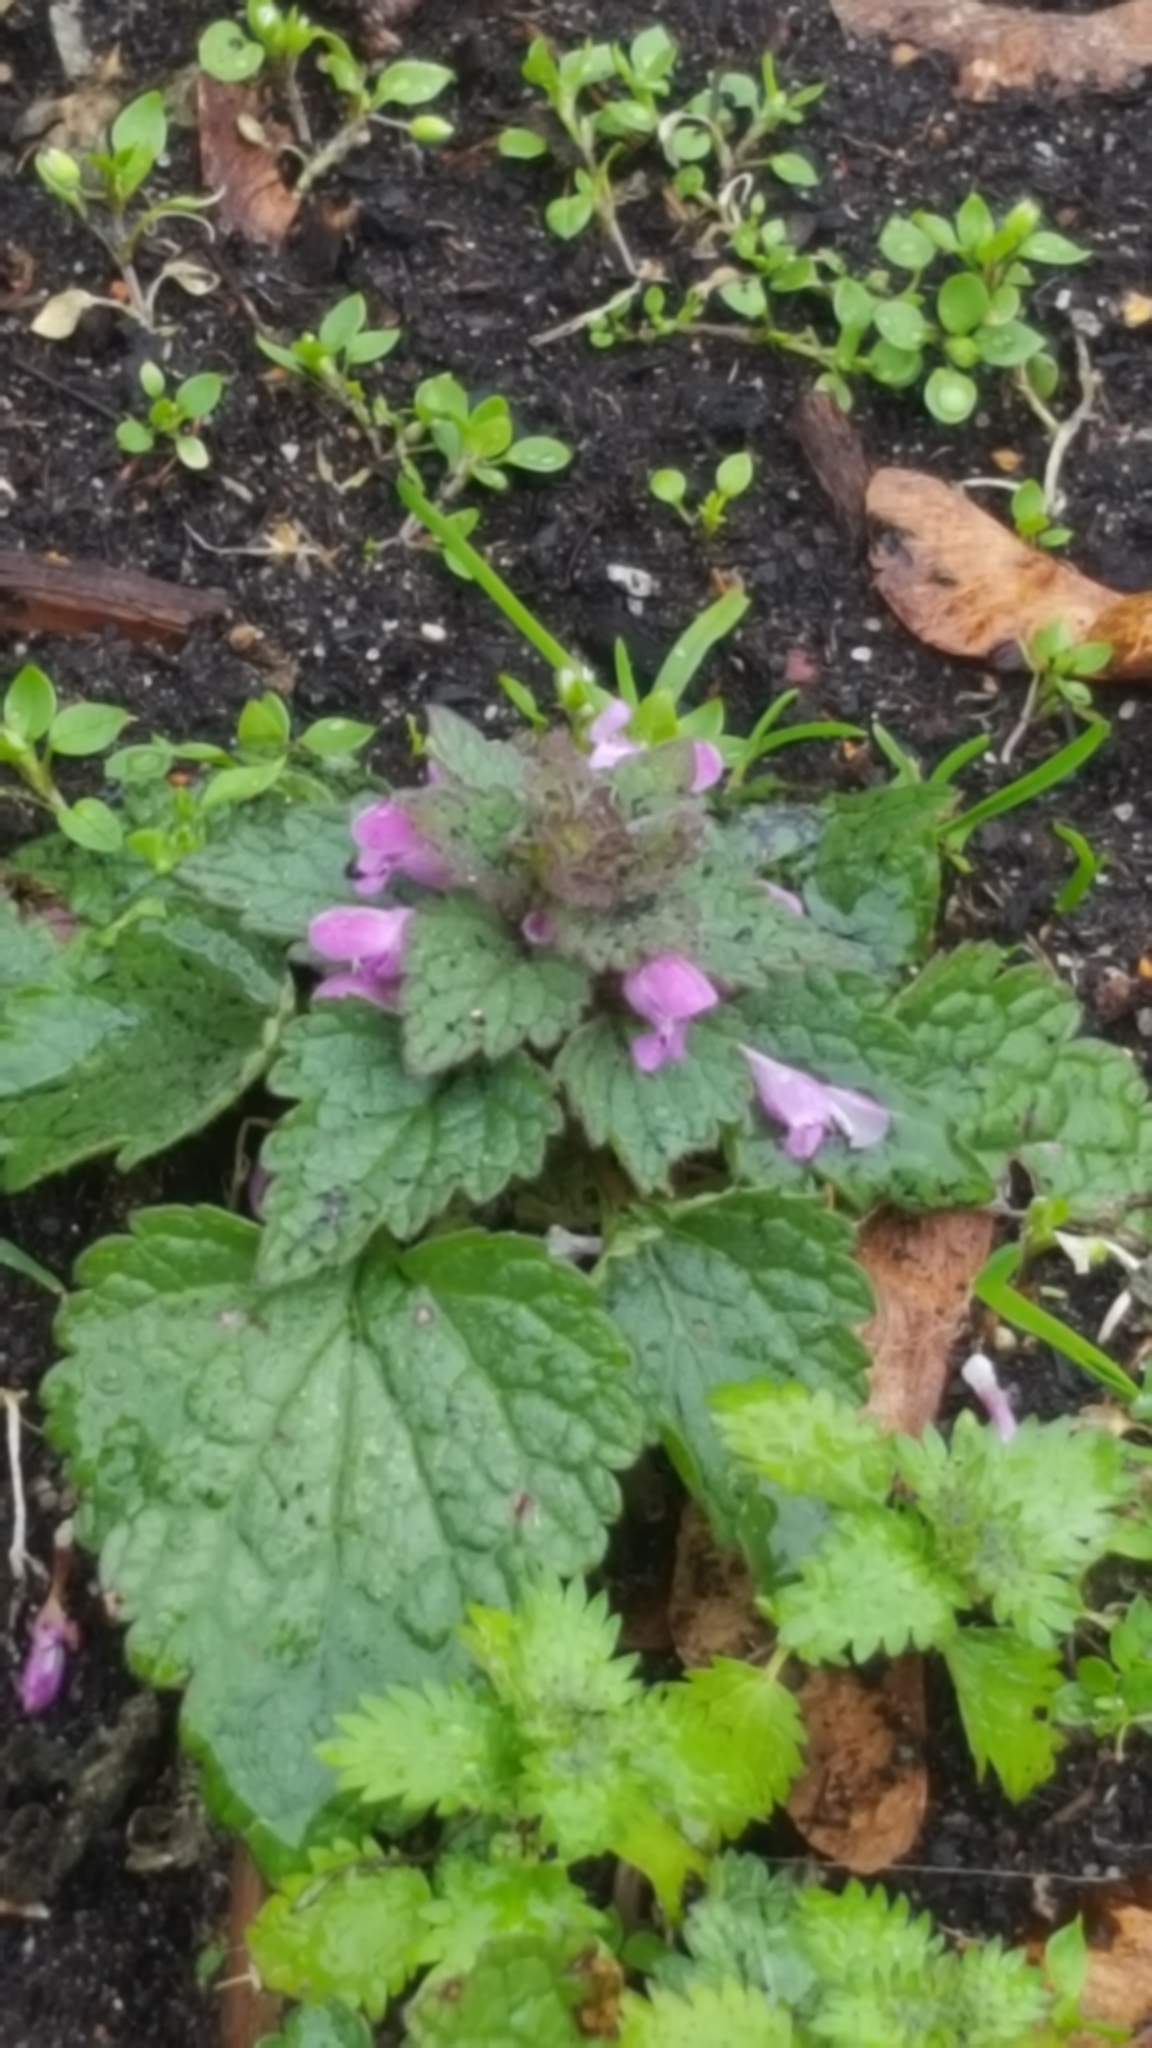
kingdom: Plantae
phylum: Tracheophyta
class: Magnoliopsida
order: Lamiales
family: Lamiaceae
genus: Lamium
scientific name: Lamium purpureum
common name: Red dead-nettle
